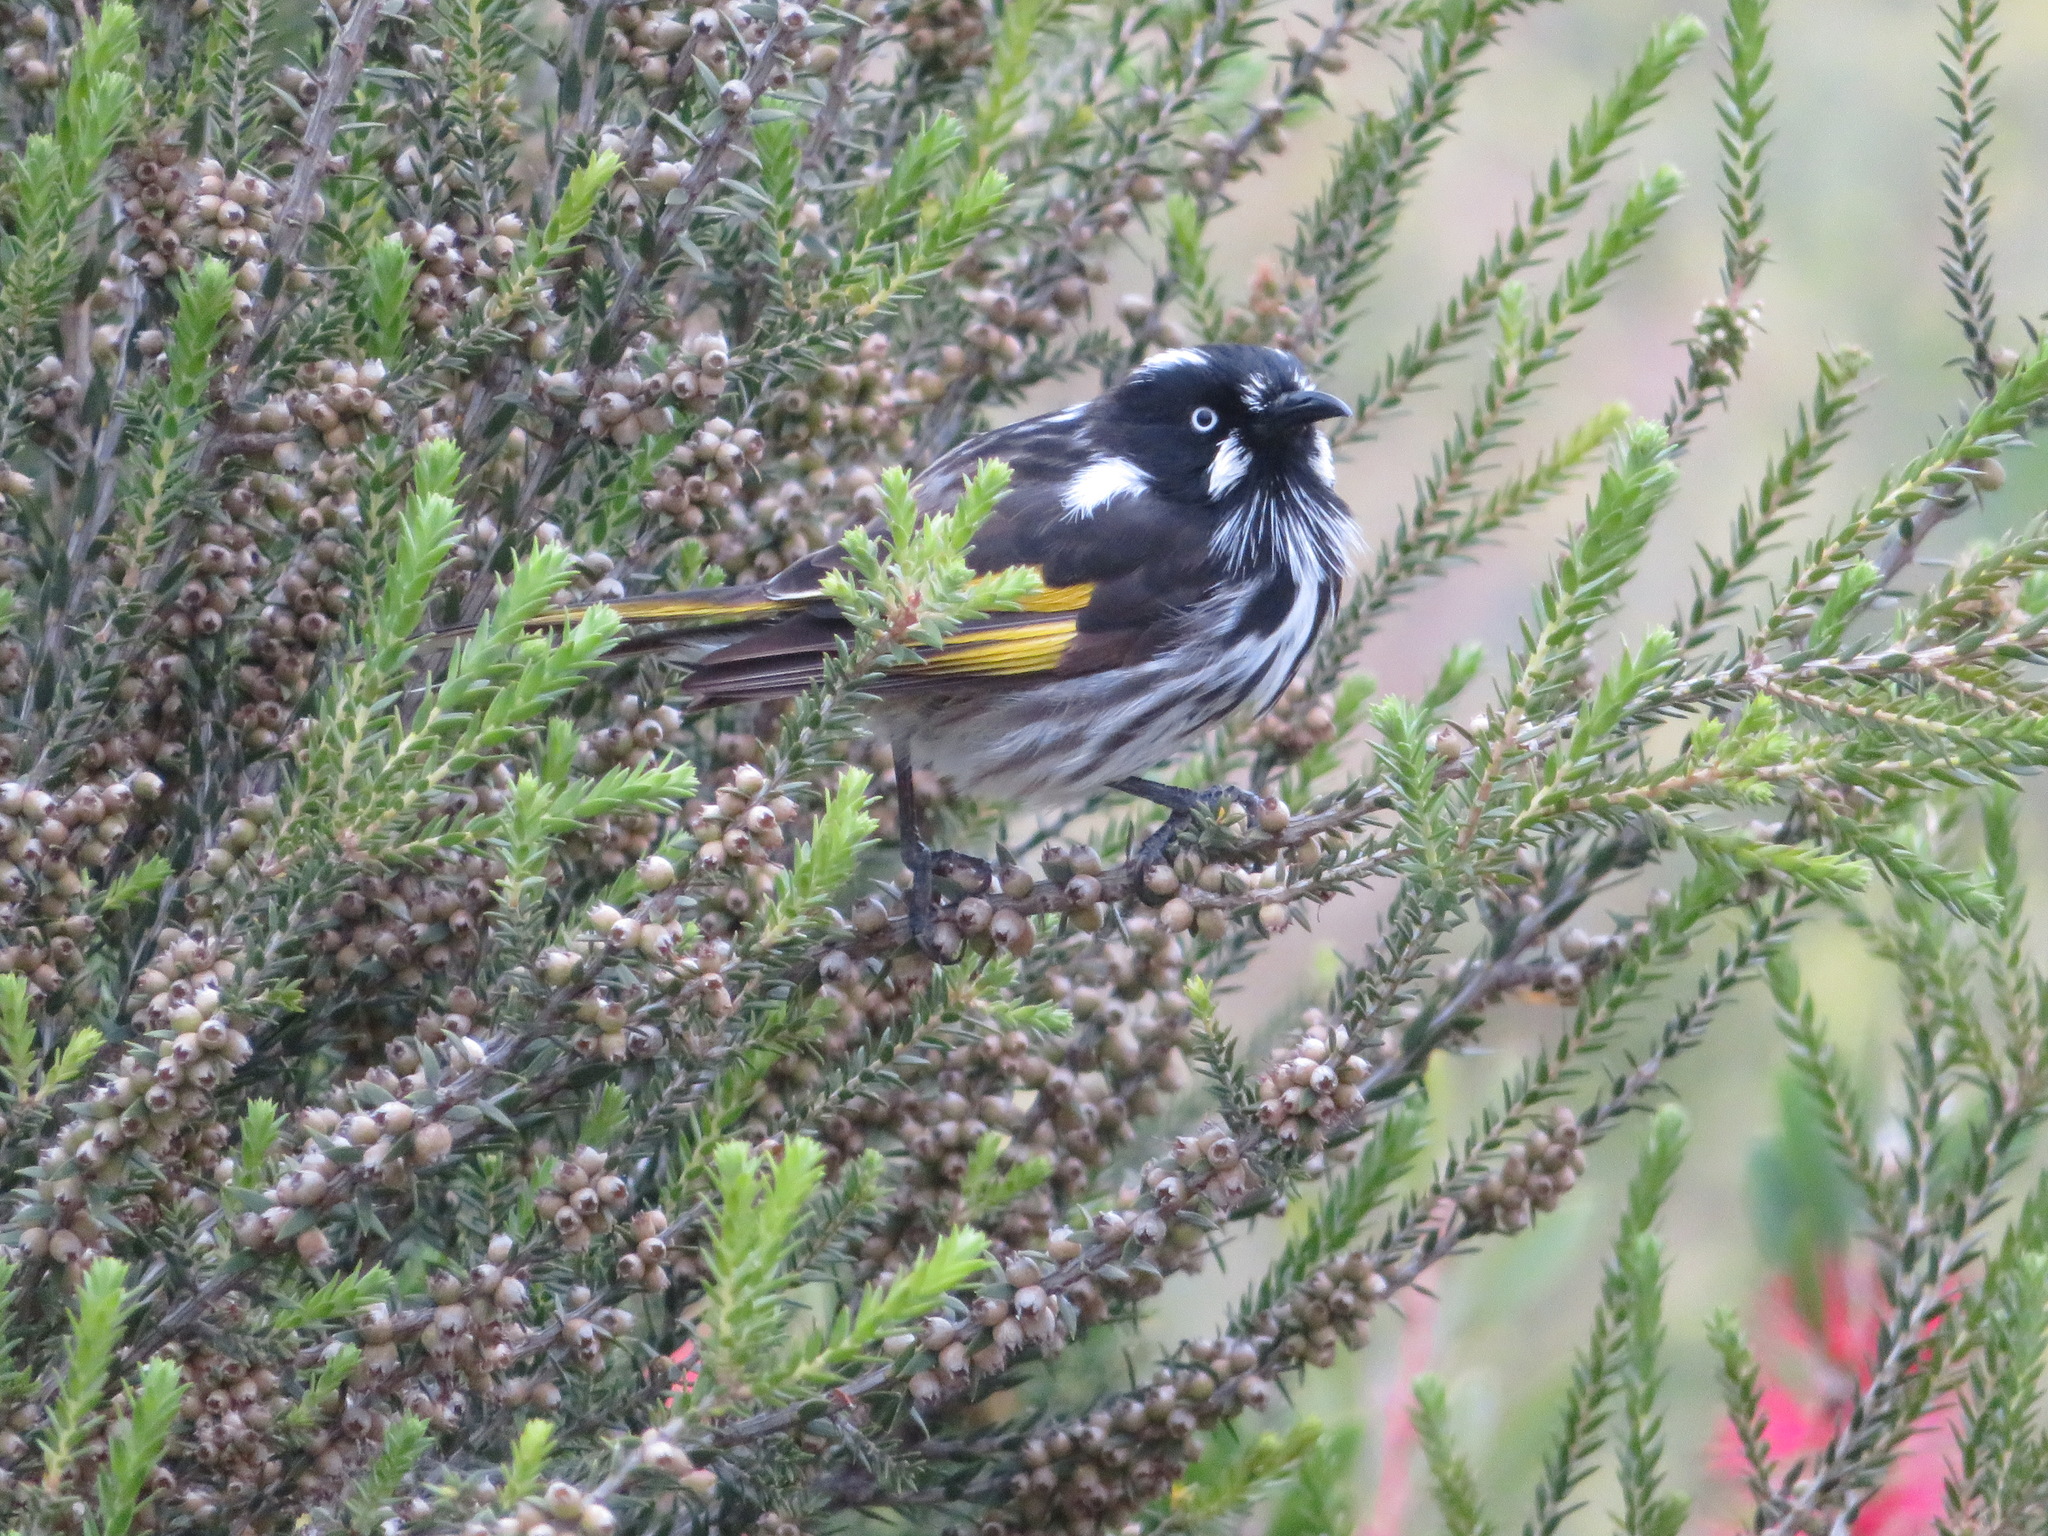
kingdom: Animalia
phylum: Chordata
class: Aves
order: Passeriformes
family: Meliphagidae
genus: Phylidonyris
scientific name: Phylidonyris novaehollandiae
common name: New holland honeyeater
